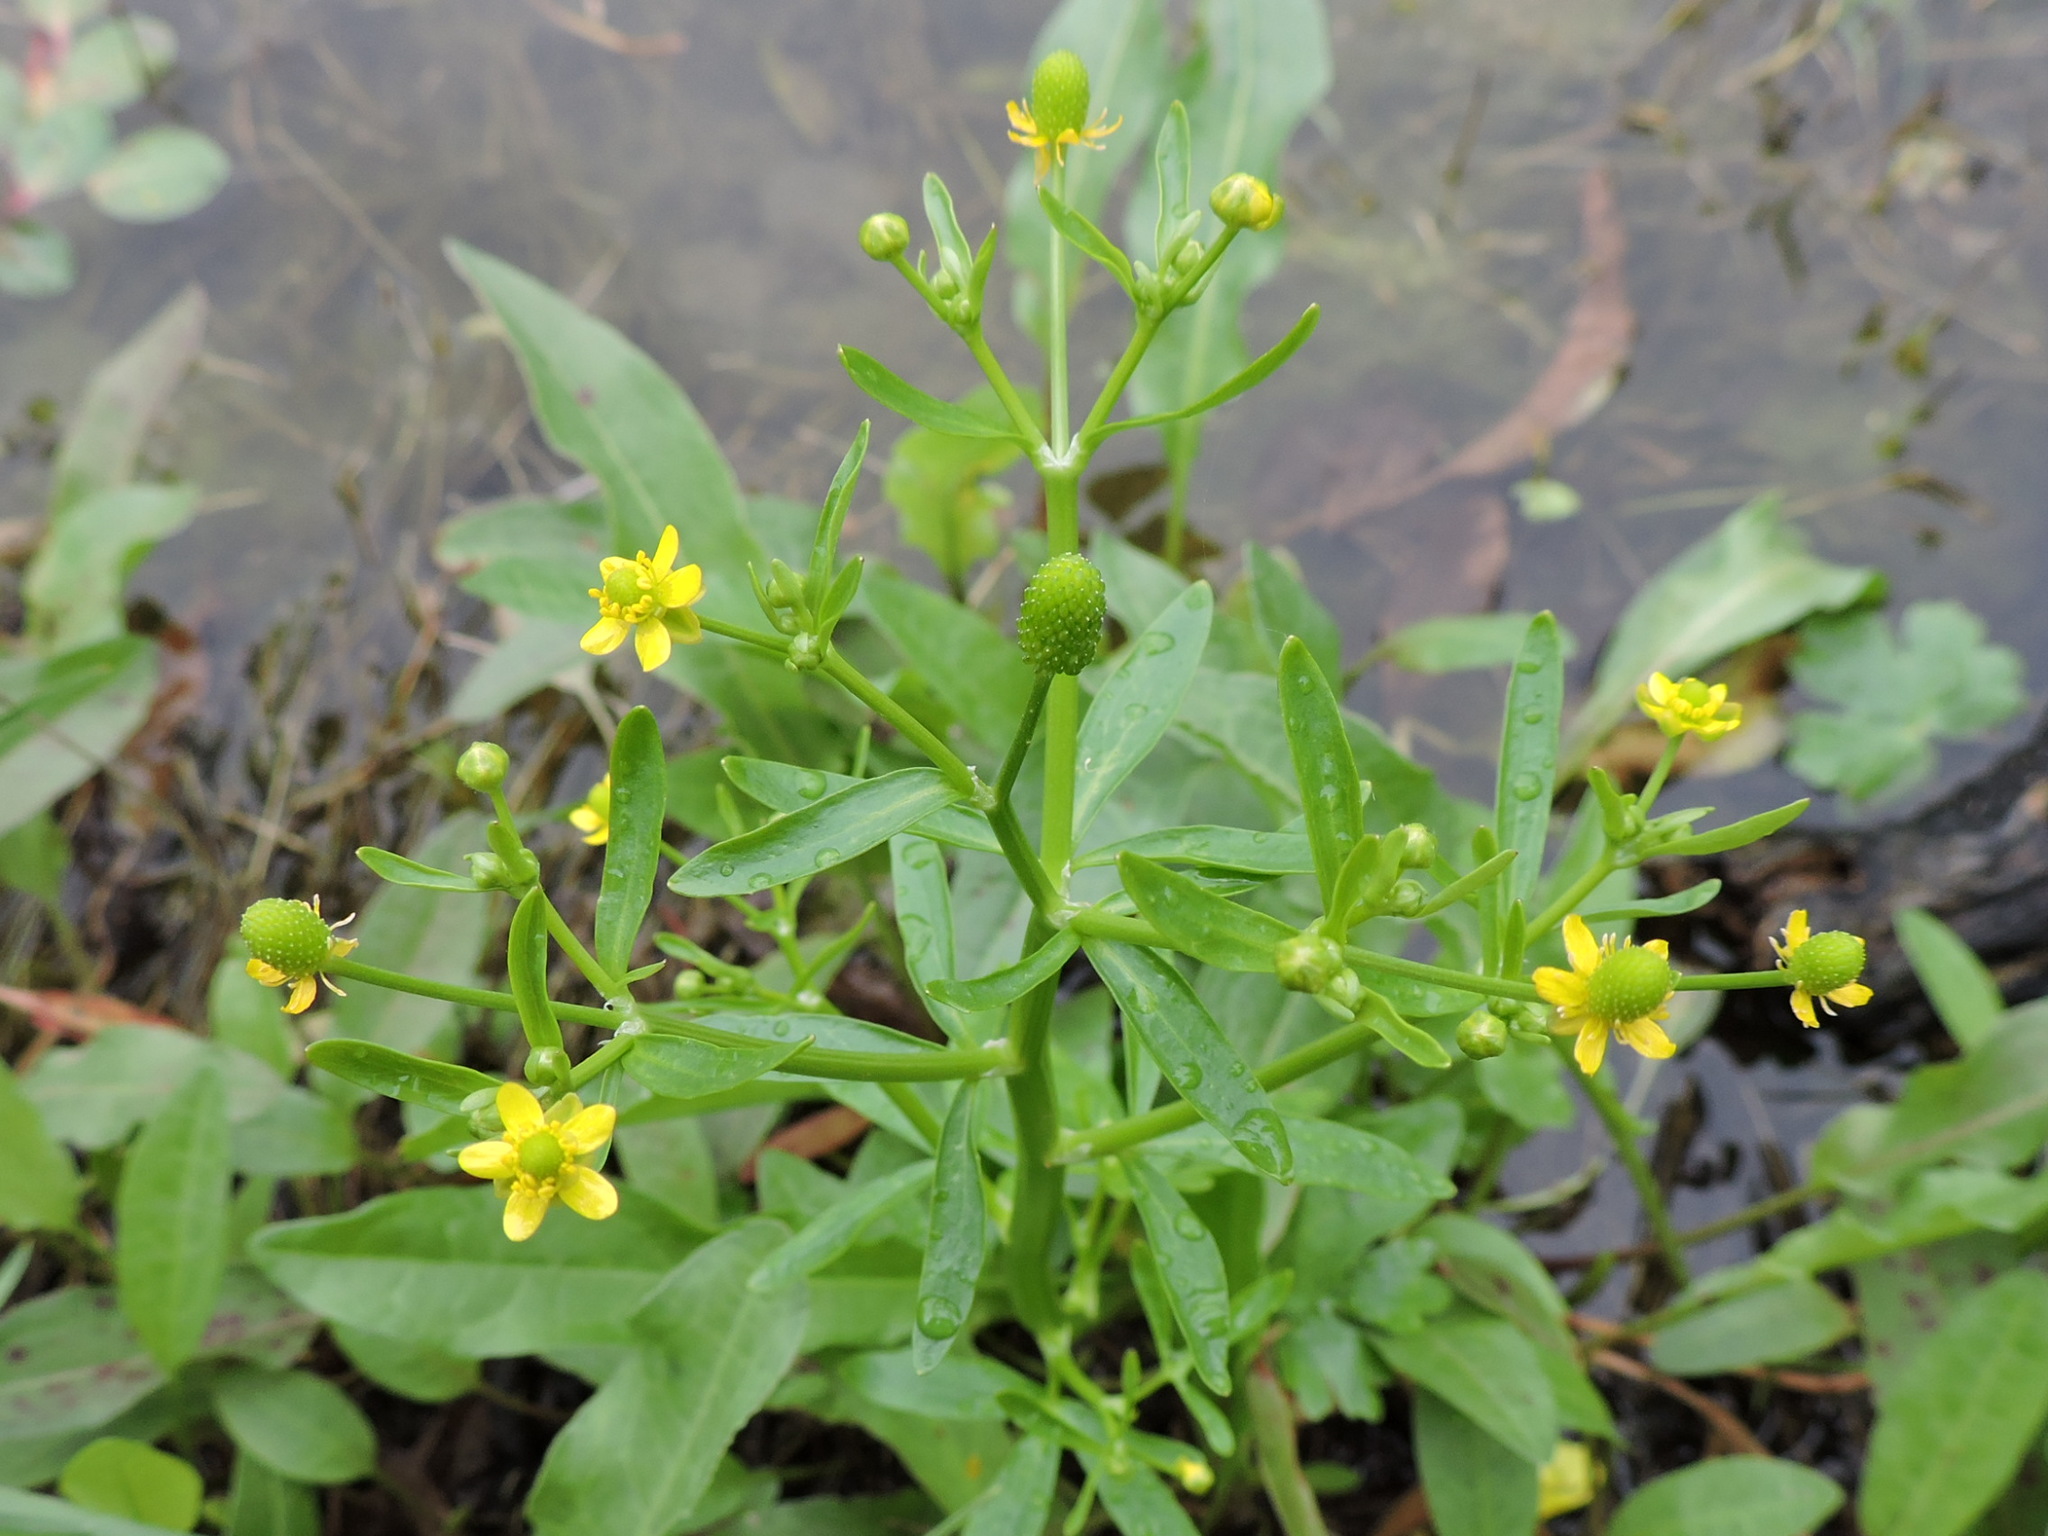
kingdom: Plantae
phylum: Tracheophyta
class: Magnoliopsida
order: Ranunculales
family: Ranunculaceae
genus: Ranunculus
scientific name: Ranunculus sceleratus
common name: Celery-leaved buttercup
